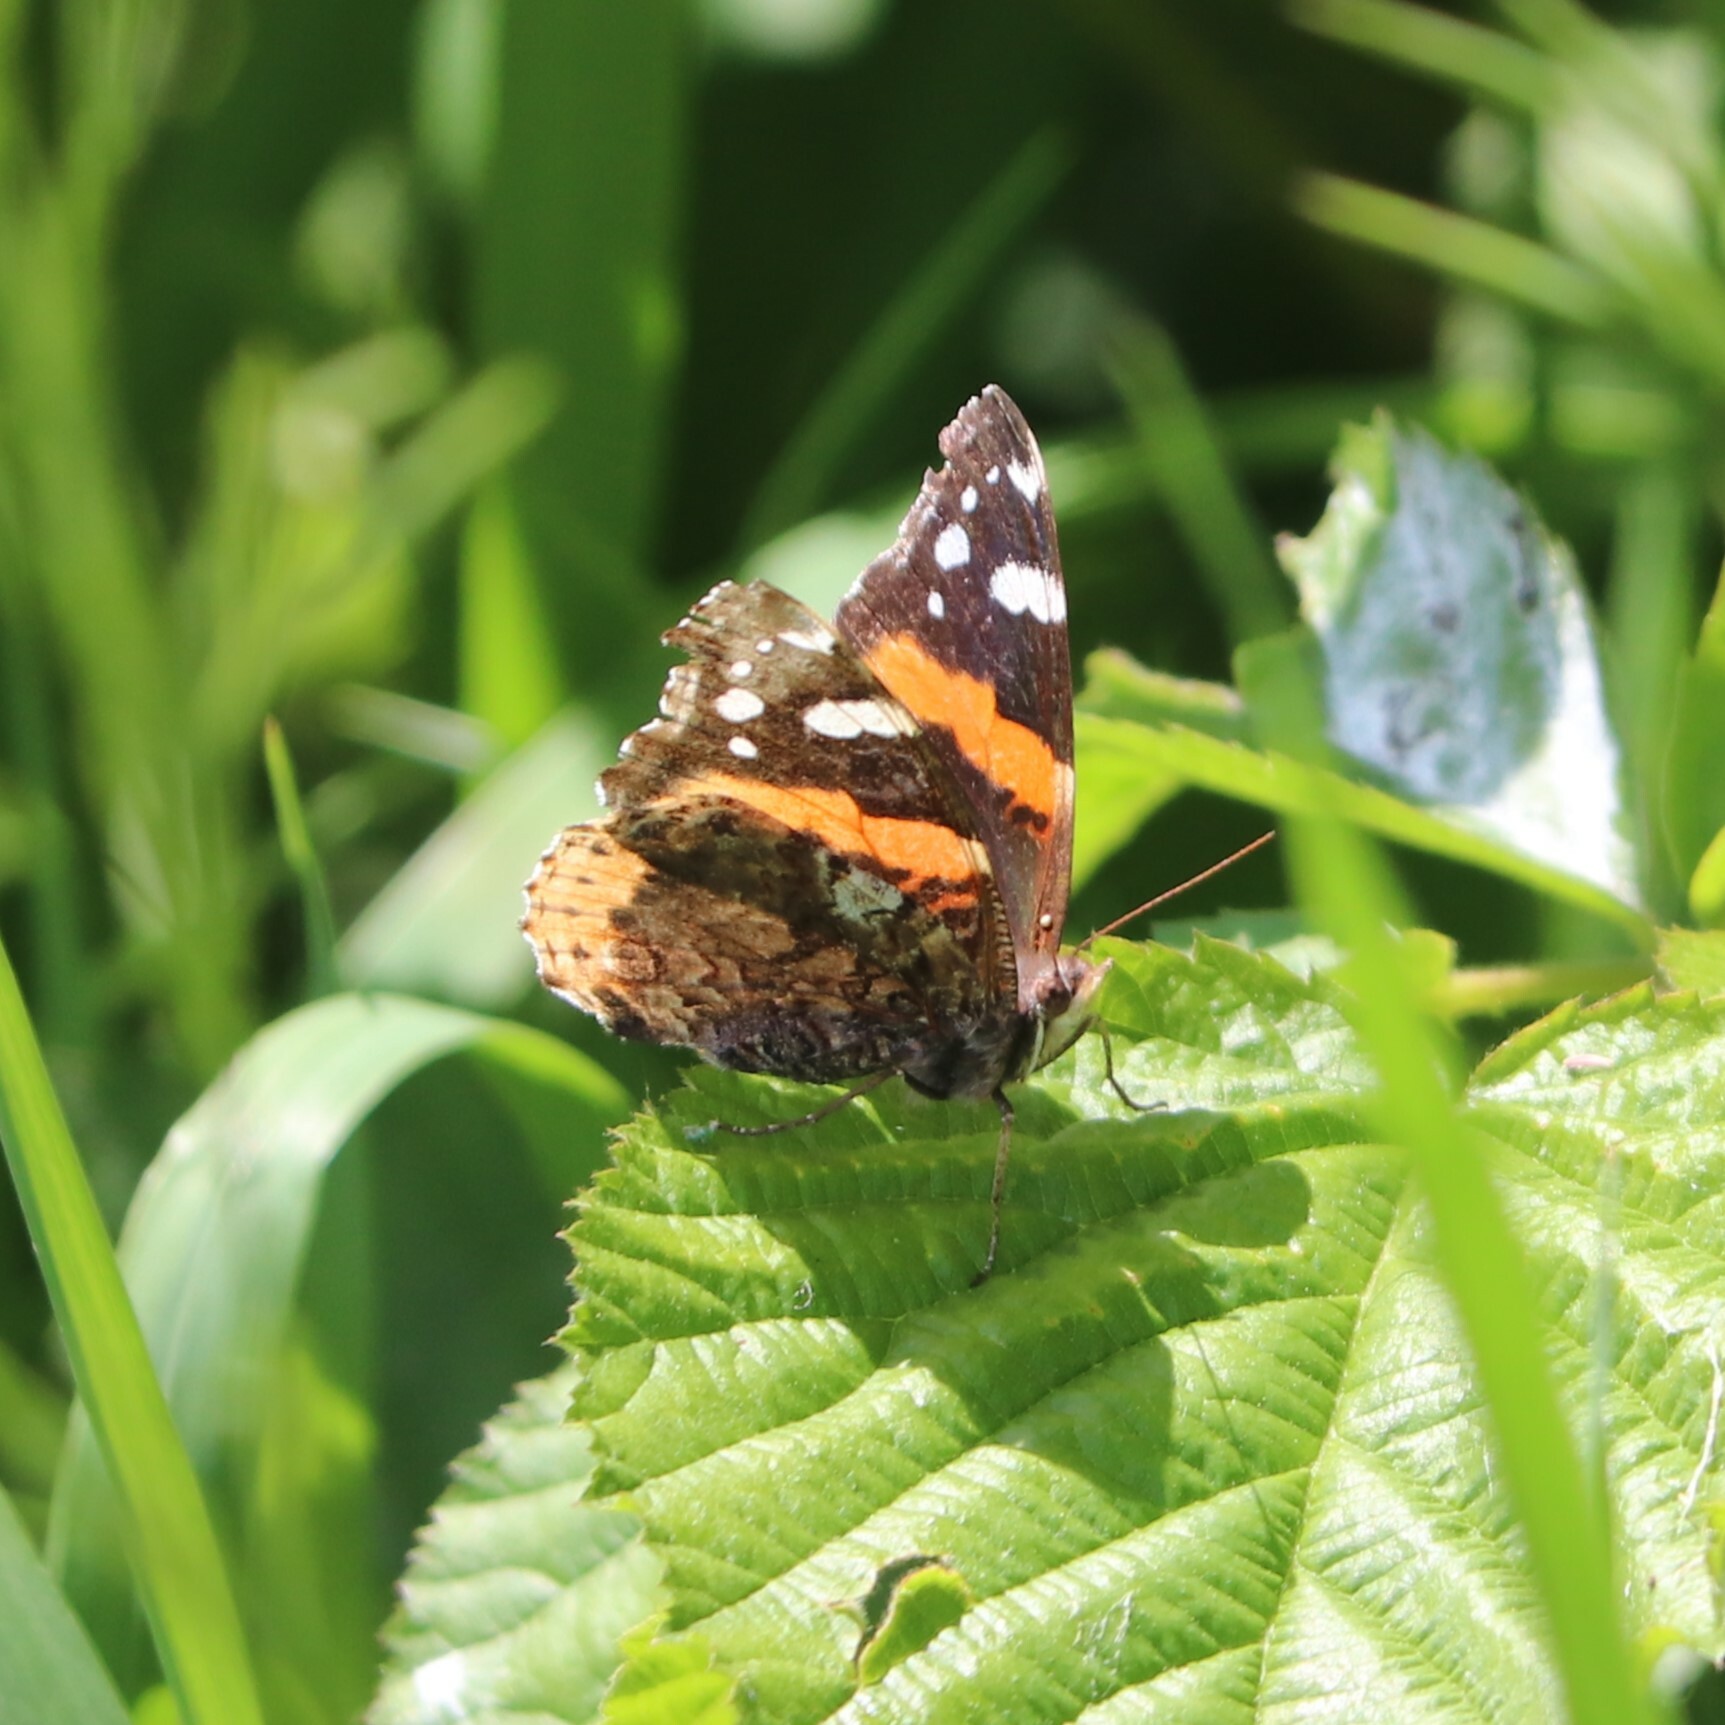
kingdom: Animalia
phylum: Arthropoda
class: Insecta
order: Lepidoptera
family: Nymphalidae
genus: Vanessa
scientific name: Vanessa atalanta
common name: Red admiral
